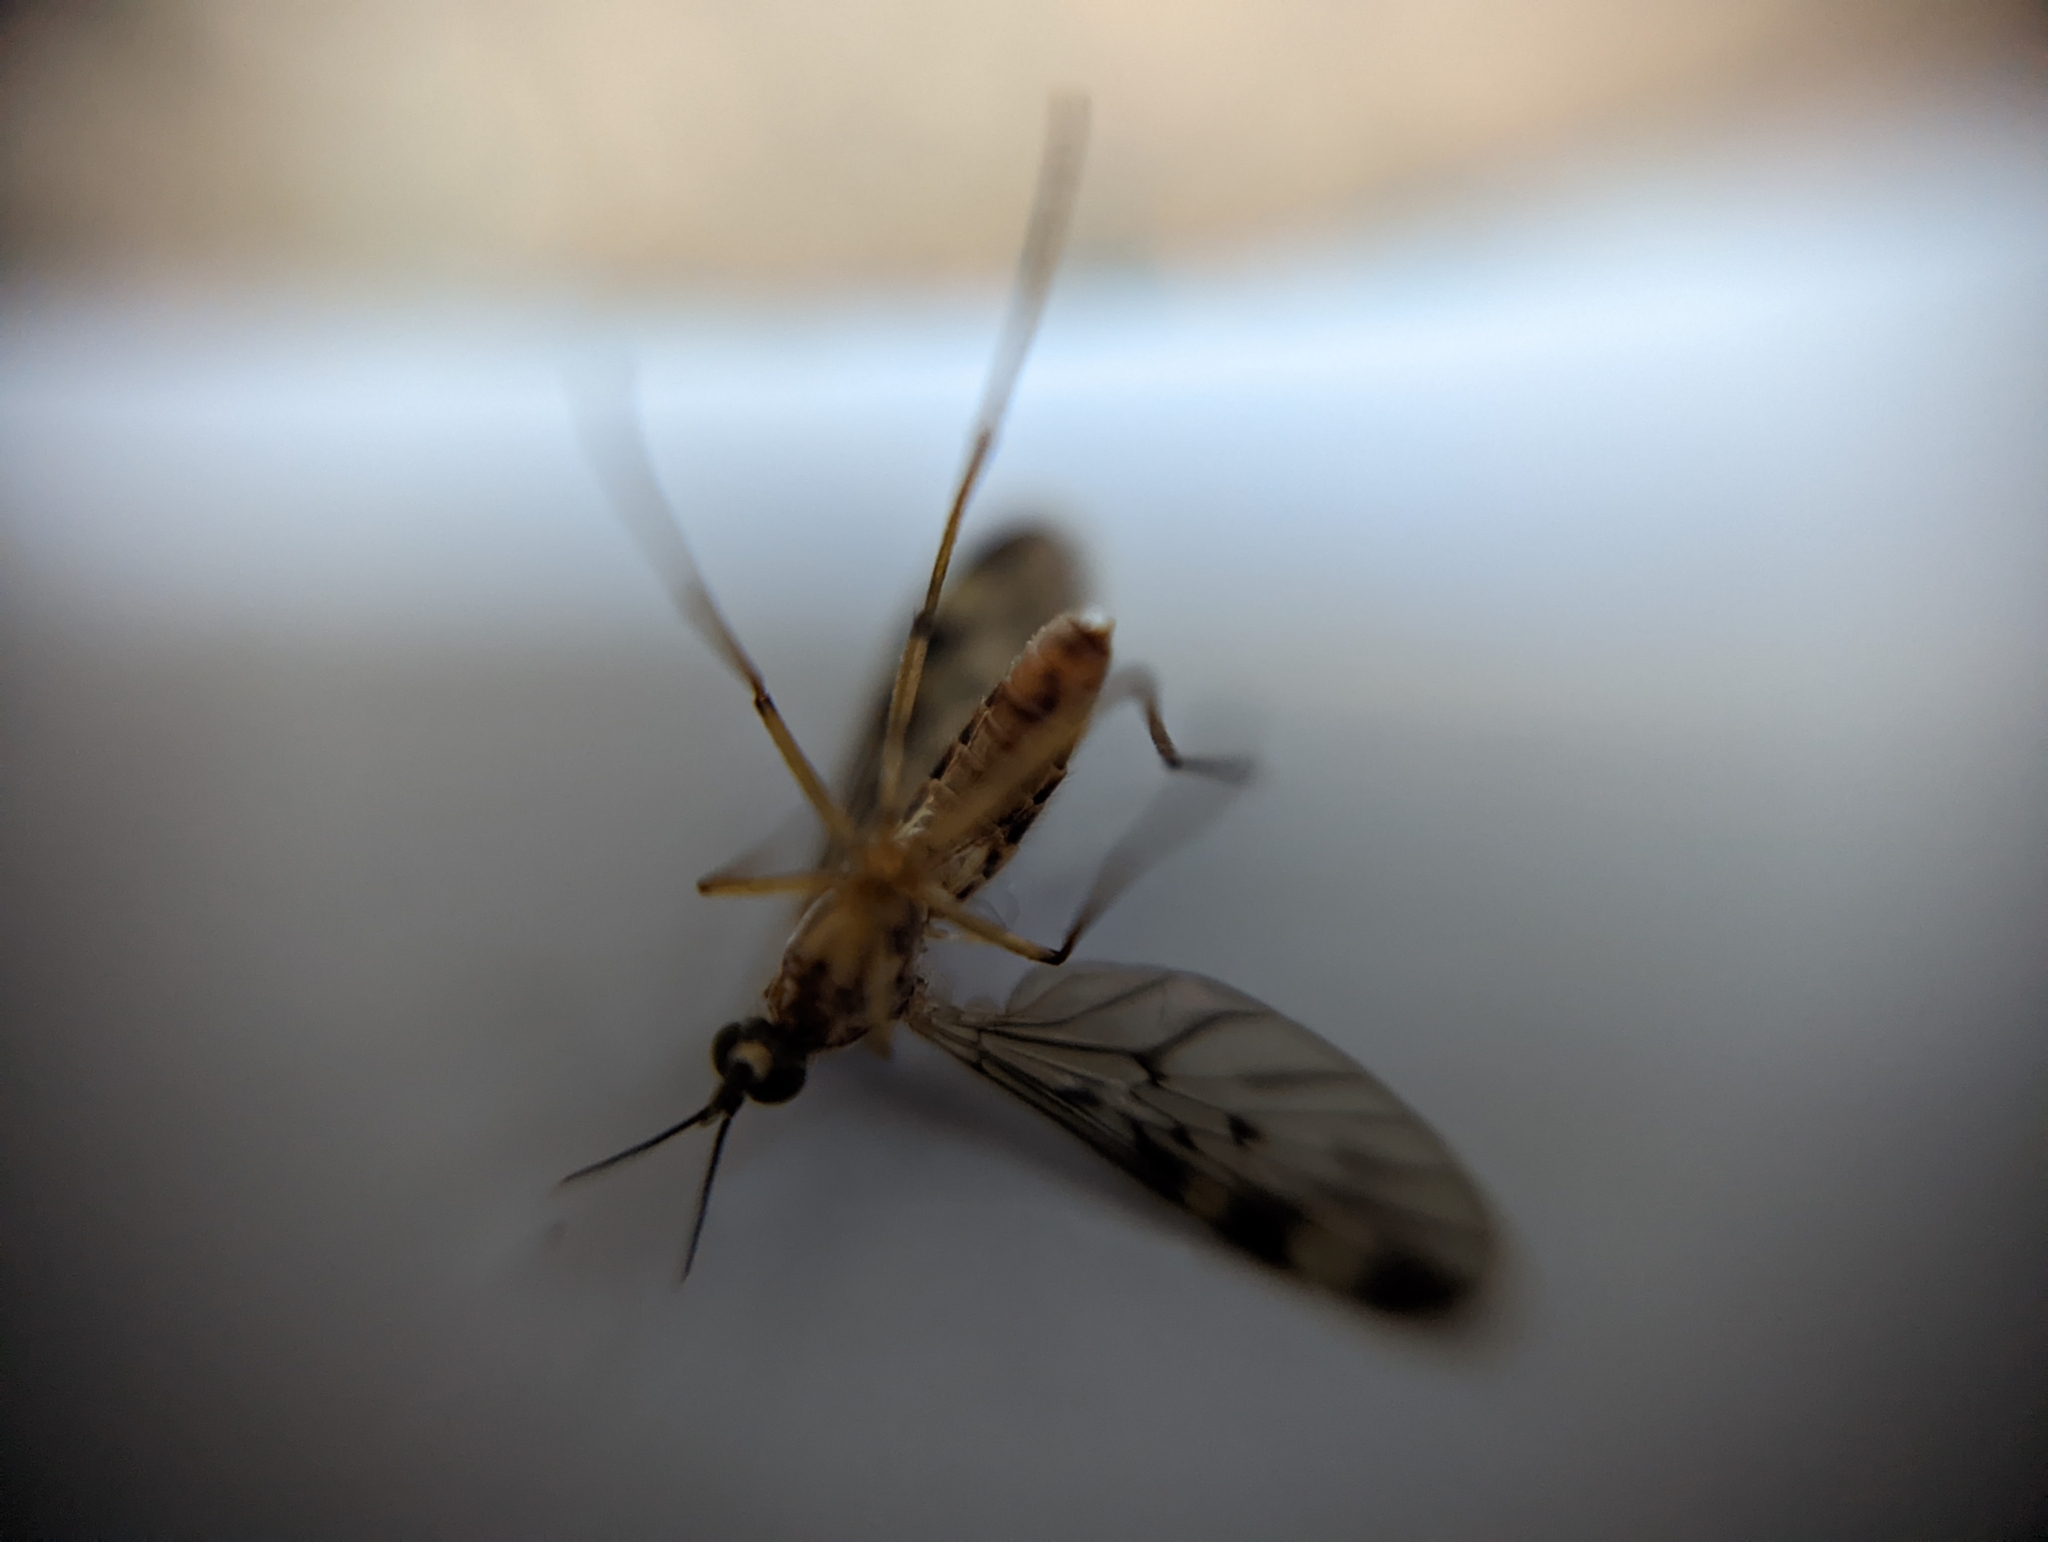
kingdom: Animalia
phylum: Arthropoda
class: Insecta
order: Diptera
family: Anisopodidae
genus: Sylvicola
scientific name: Sylvicola fenestralis
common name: Window gnat
